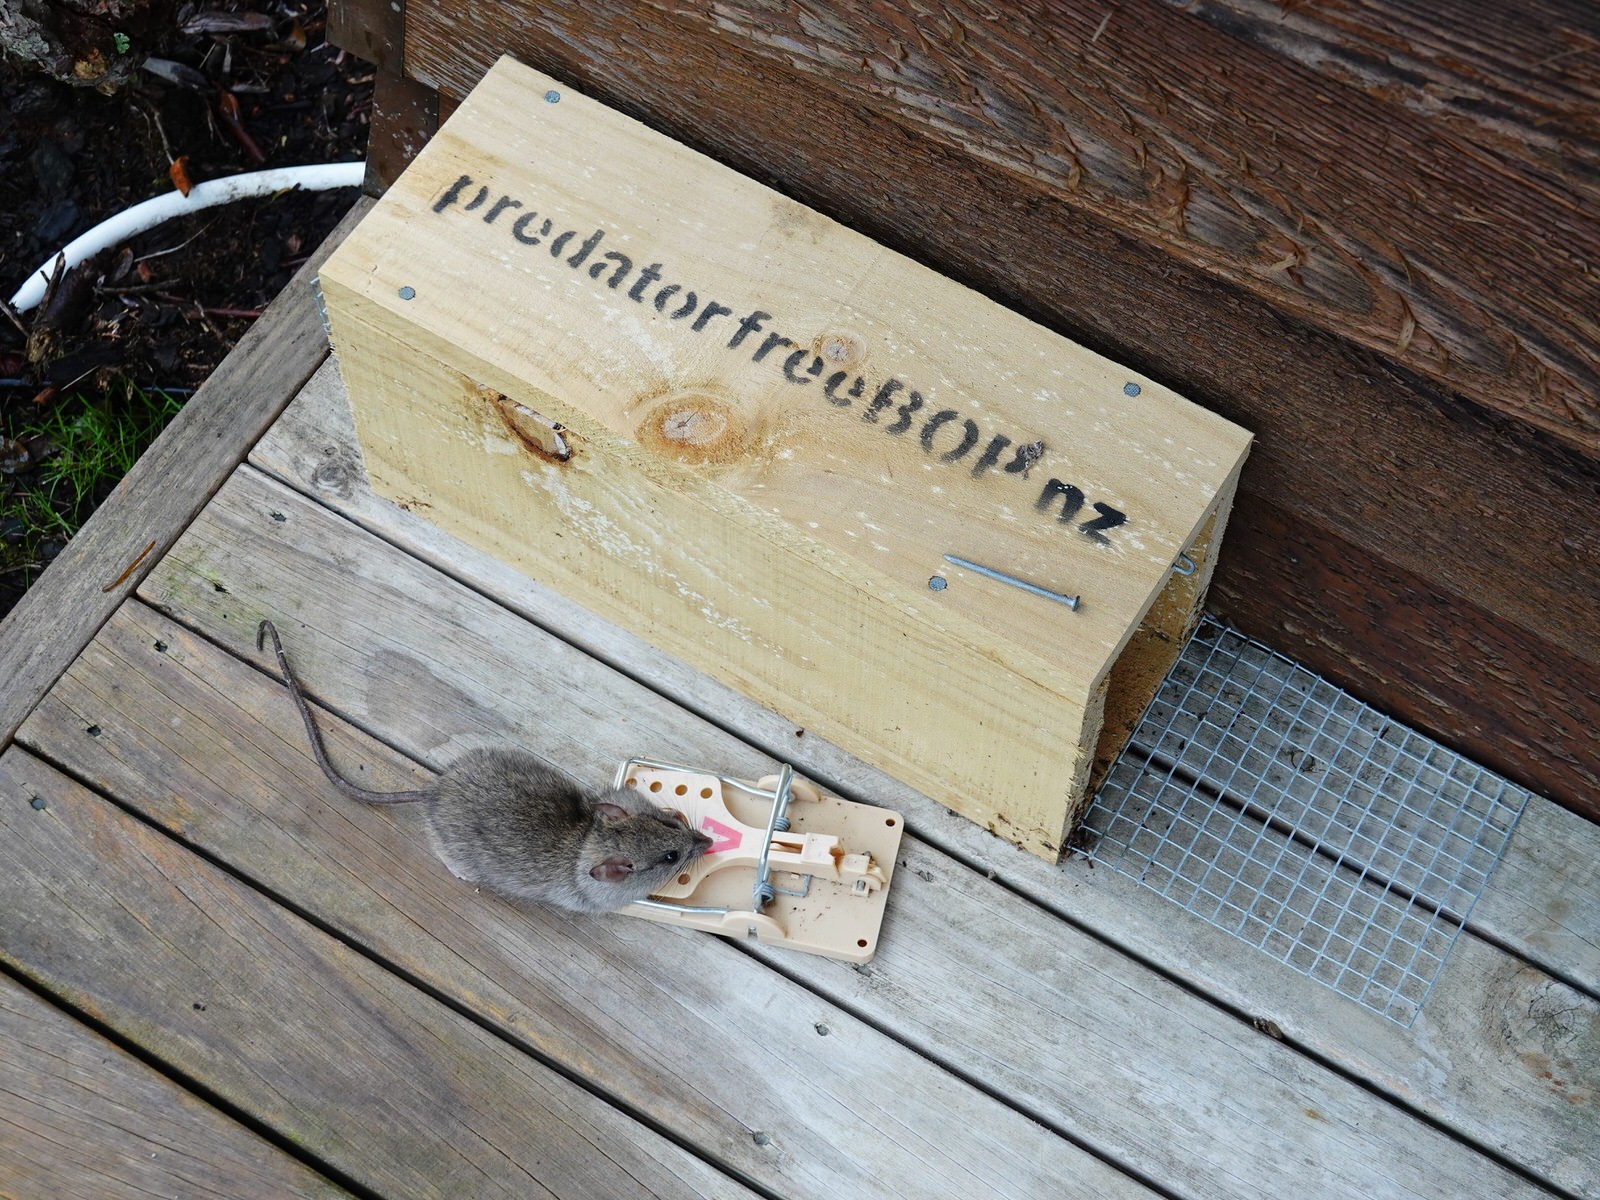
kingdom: Animalia
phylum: Chordata
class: Mammalia
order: Rodentia
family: Muridae
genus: Rattus
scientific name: Rattus rattus
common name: Black rat
